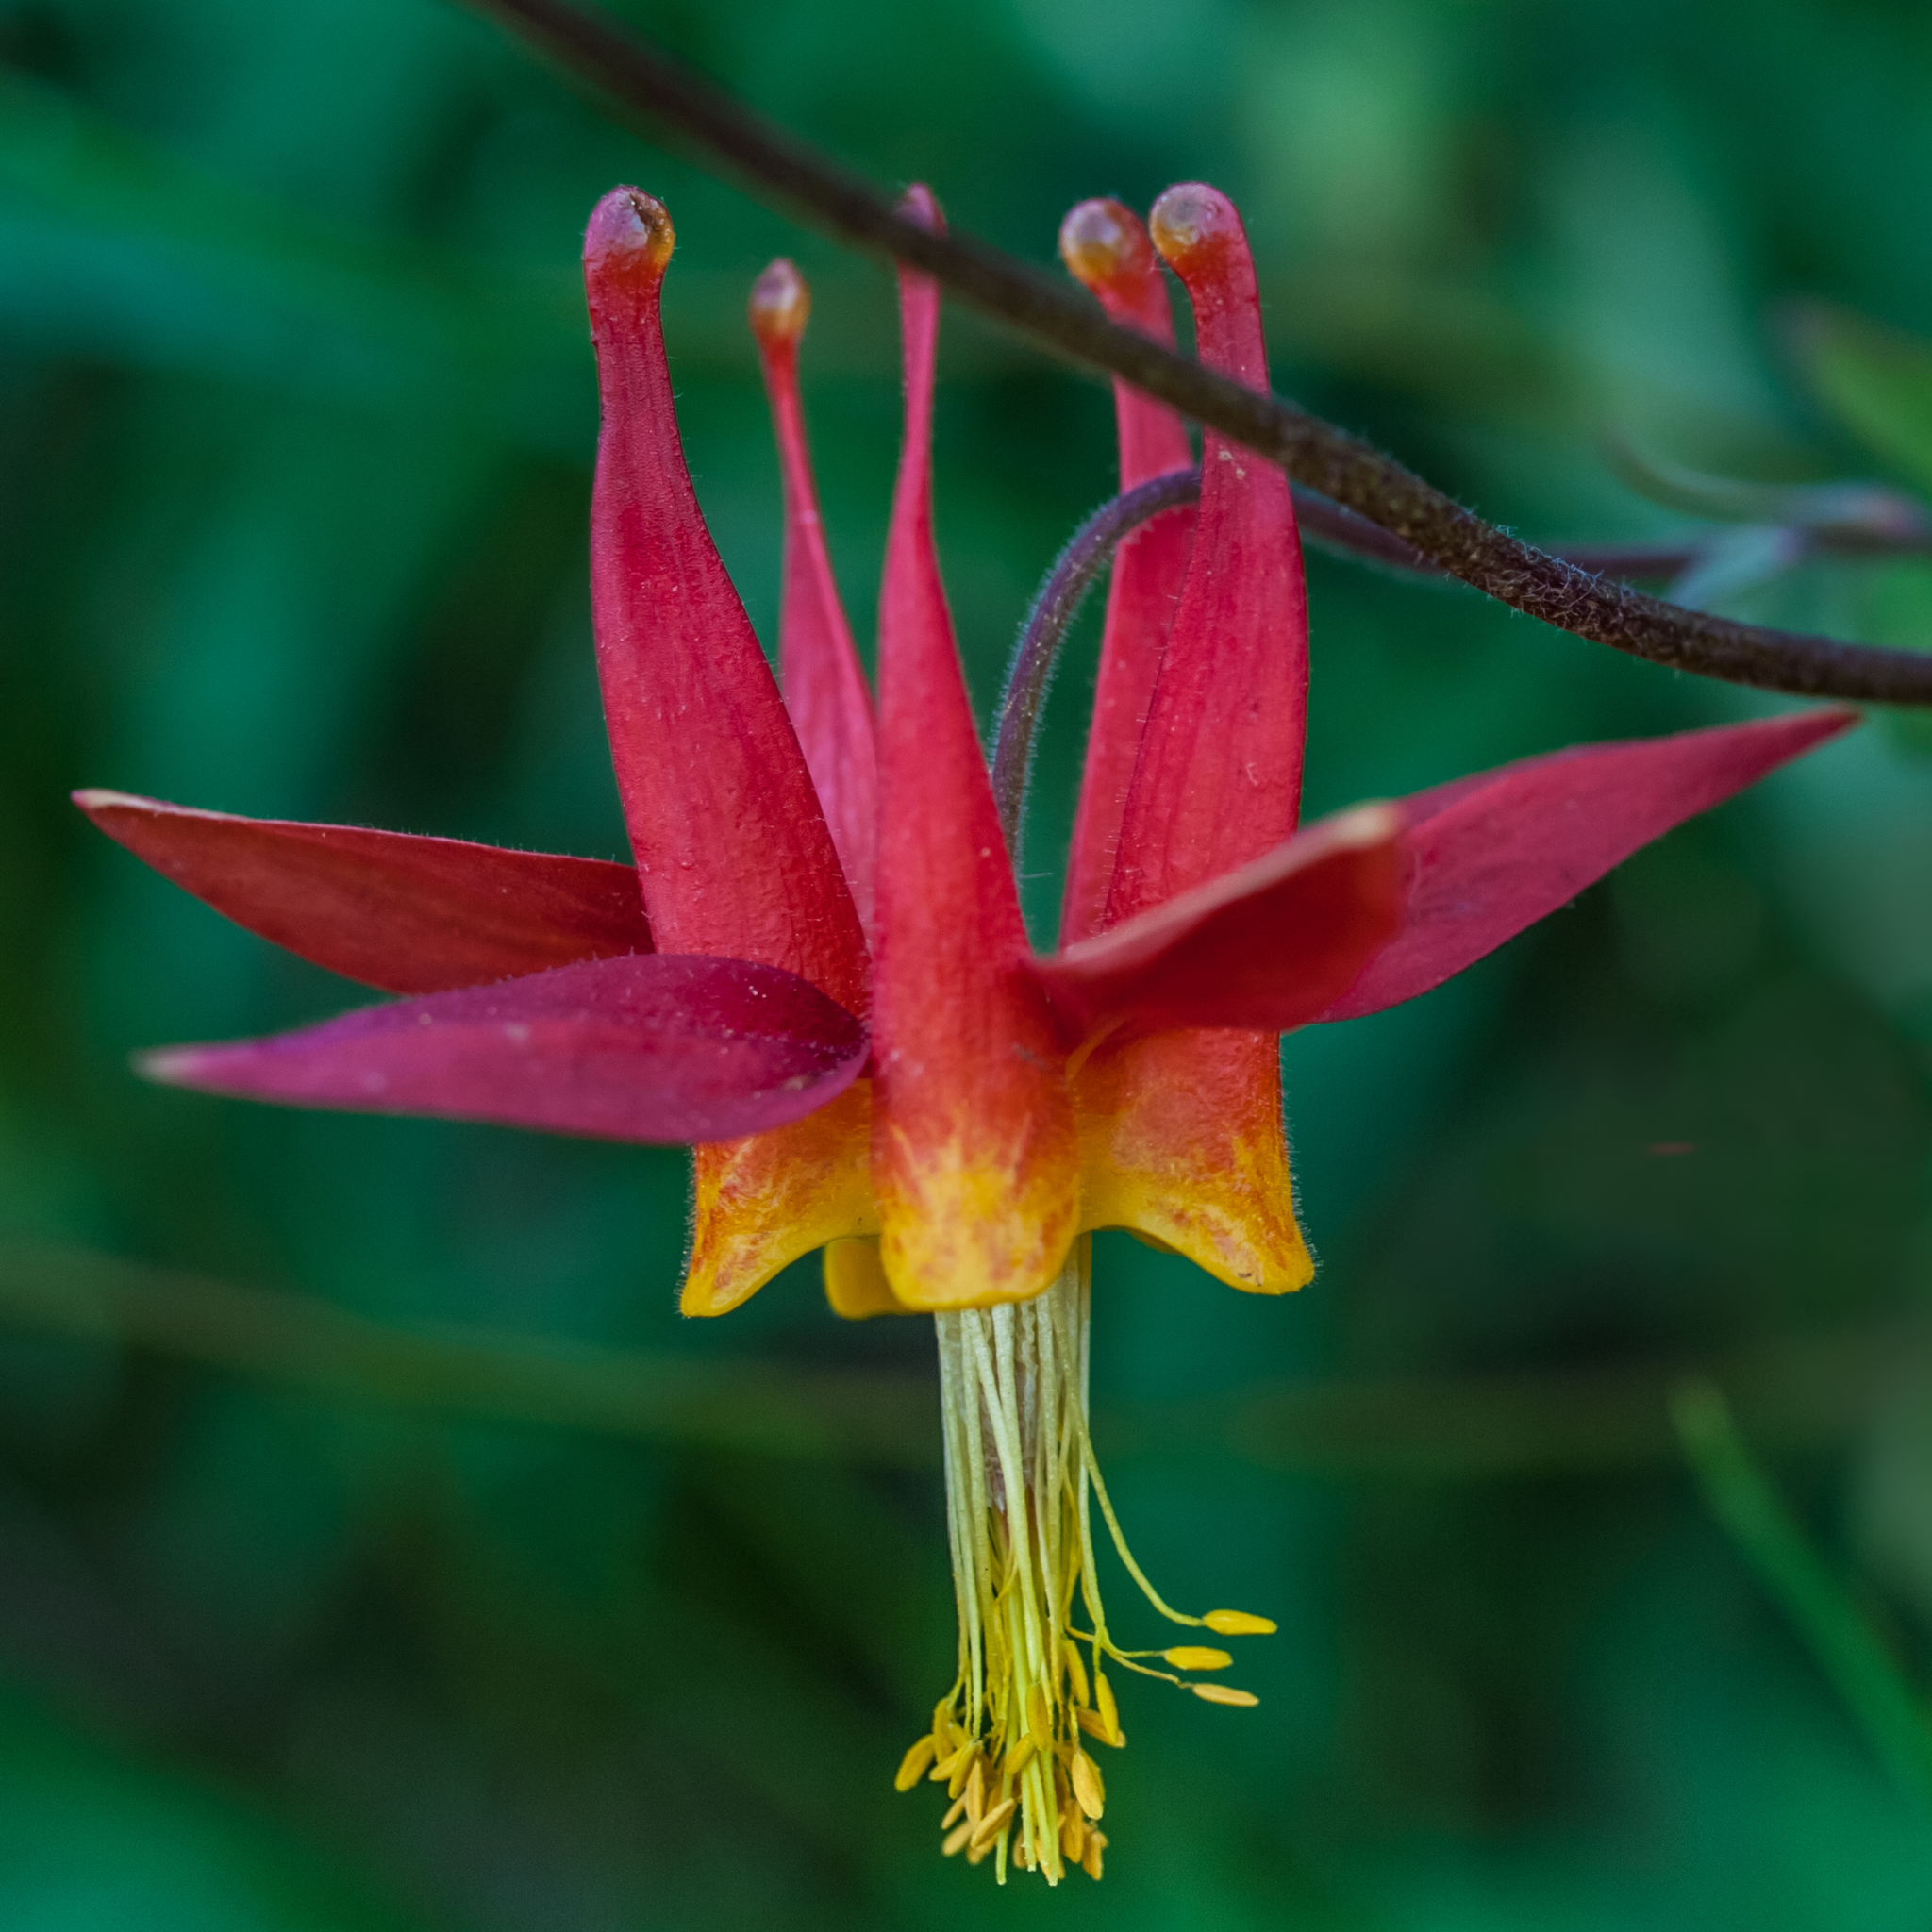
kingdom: Plantae
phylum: Tracheophyta
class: Magnoliopsida
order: Ranunculales
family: Ranunculaceae
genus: Aquilegia
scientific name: Aquilegia formosa
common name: Sitka columbine
